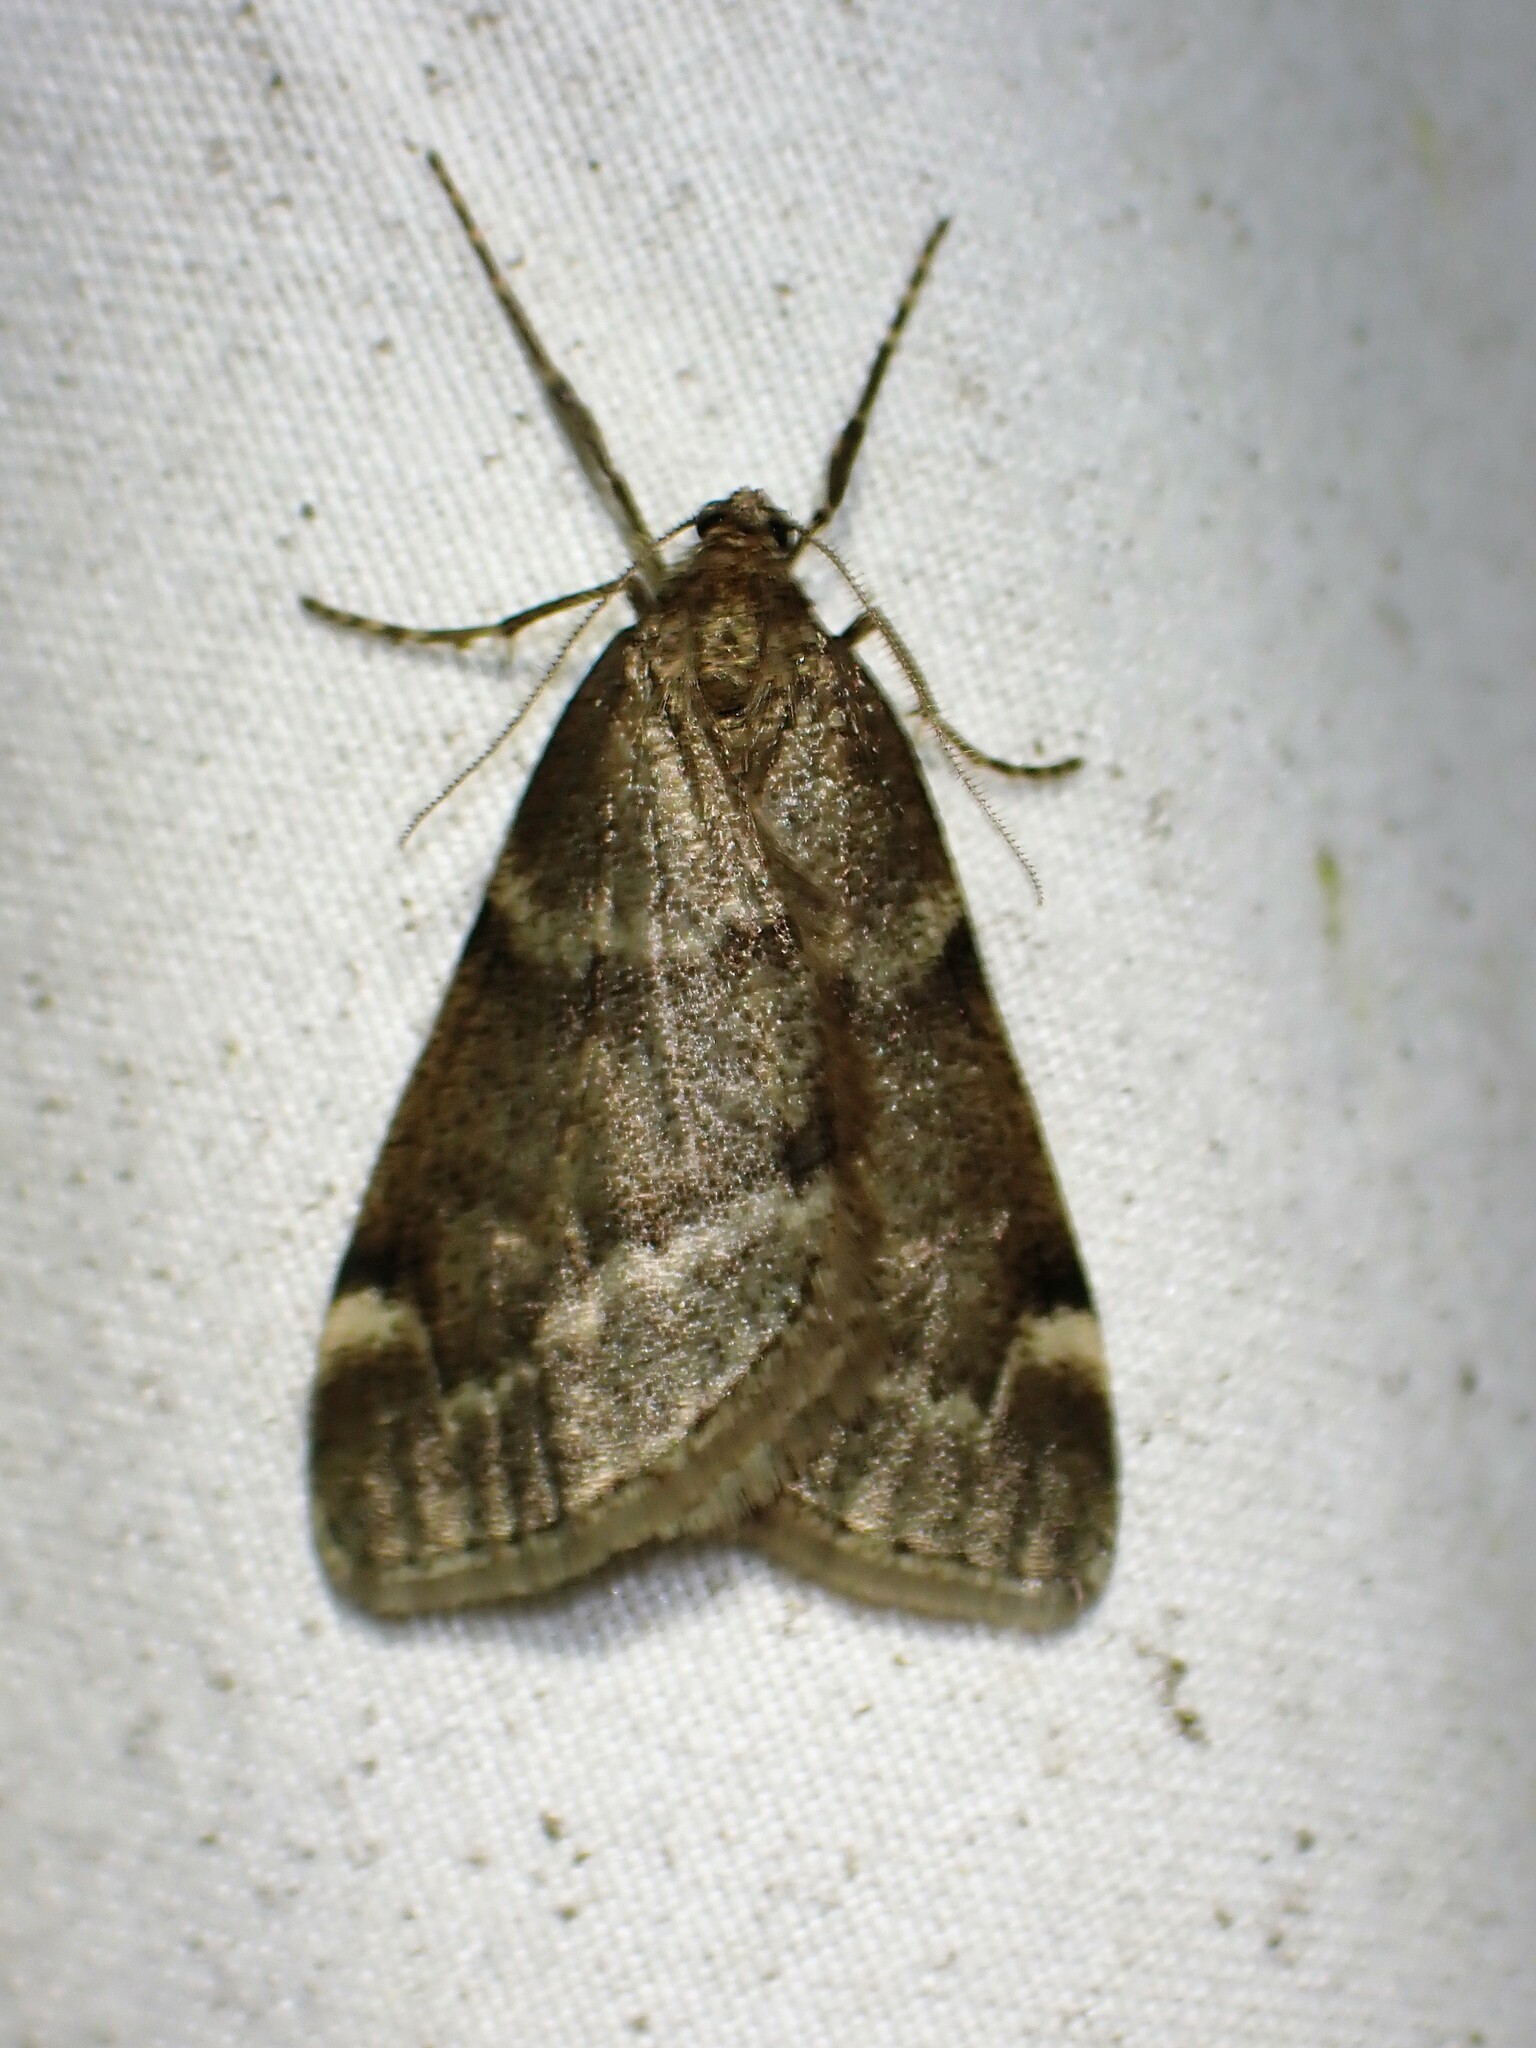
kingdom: Animalia
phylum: Arthropoda
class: Insecta
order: Lepidoptera
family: Geometridae
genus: Alsophila
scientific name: Alsophila pometaria
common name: Fall cankerworm
